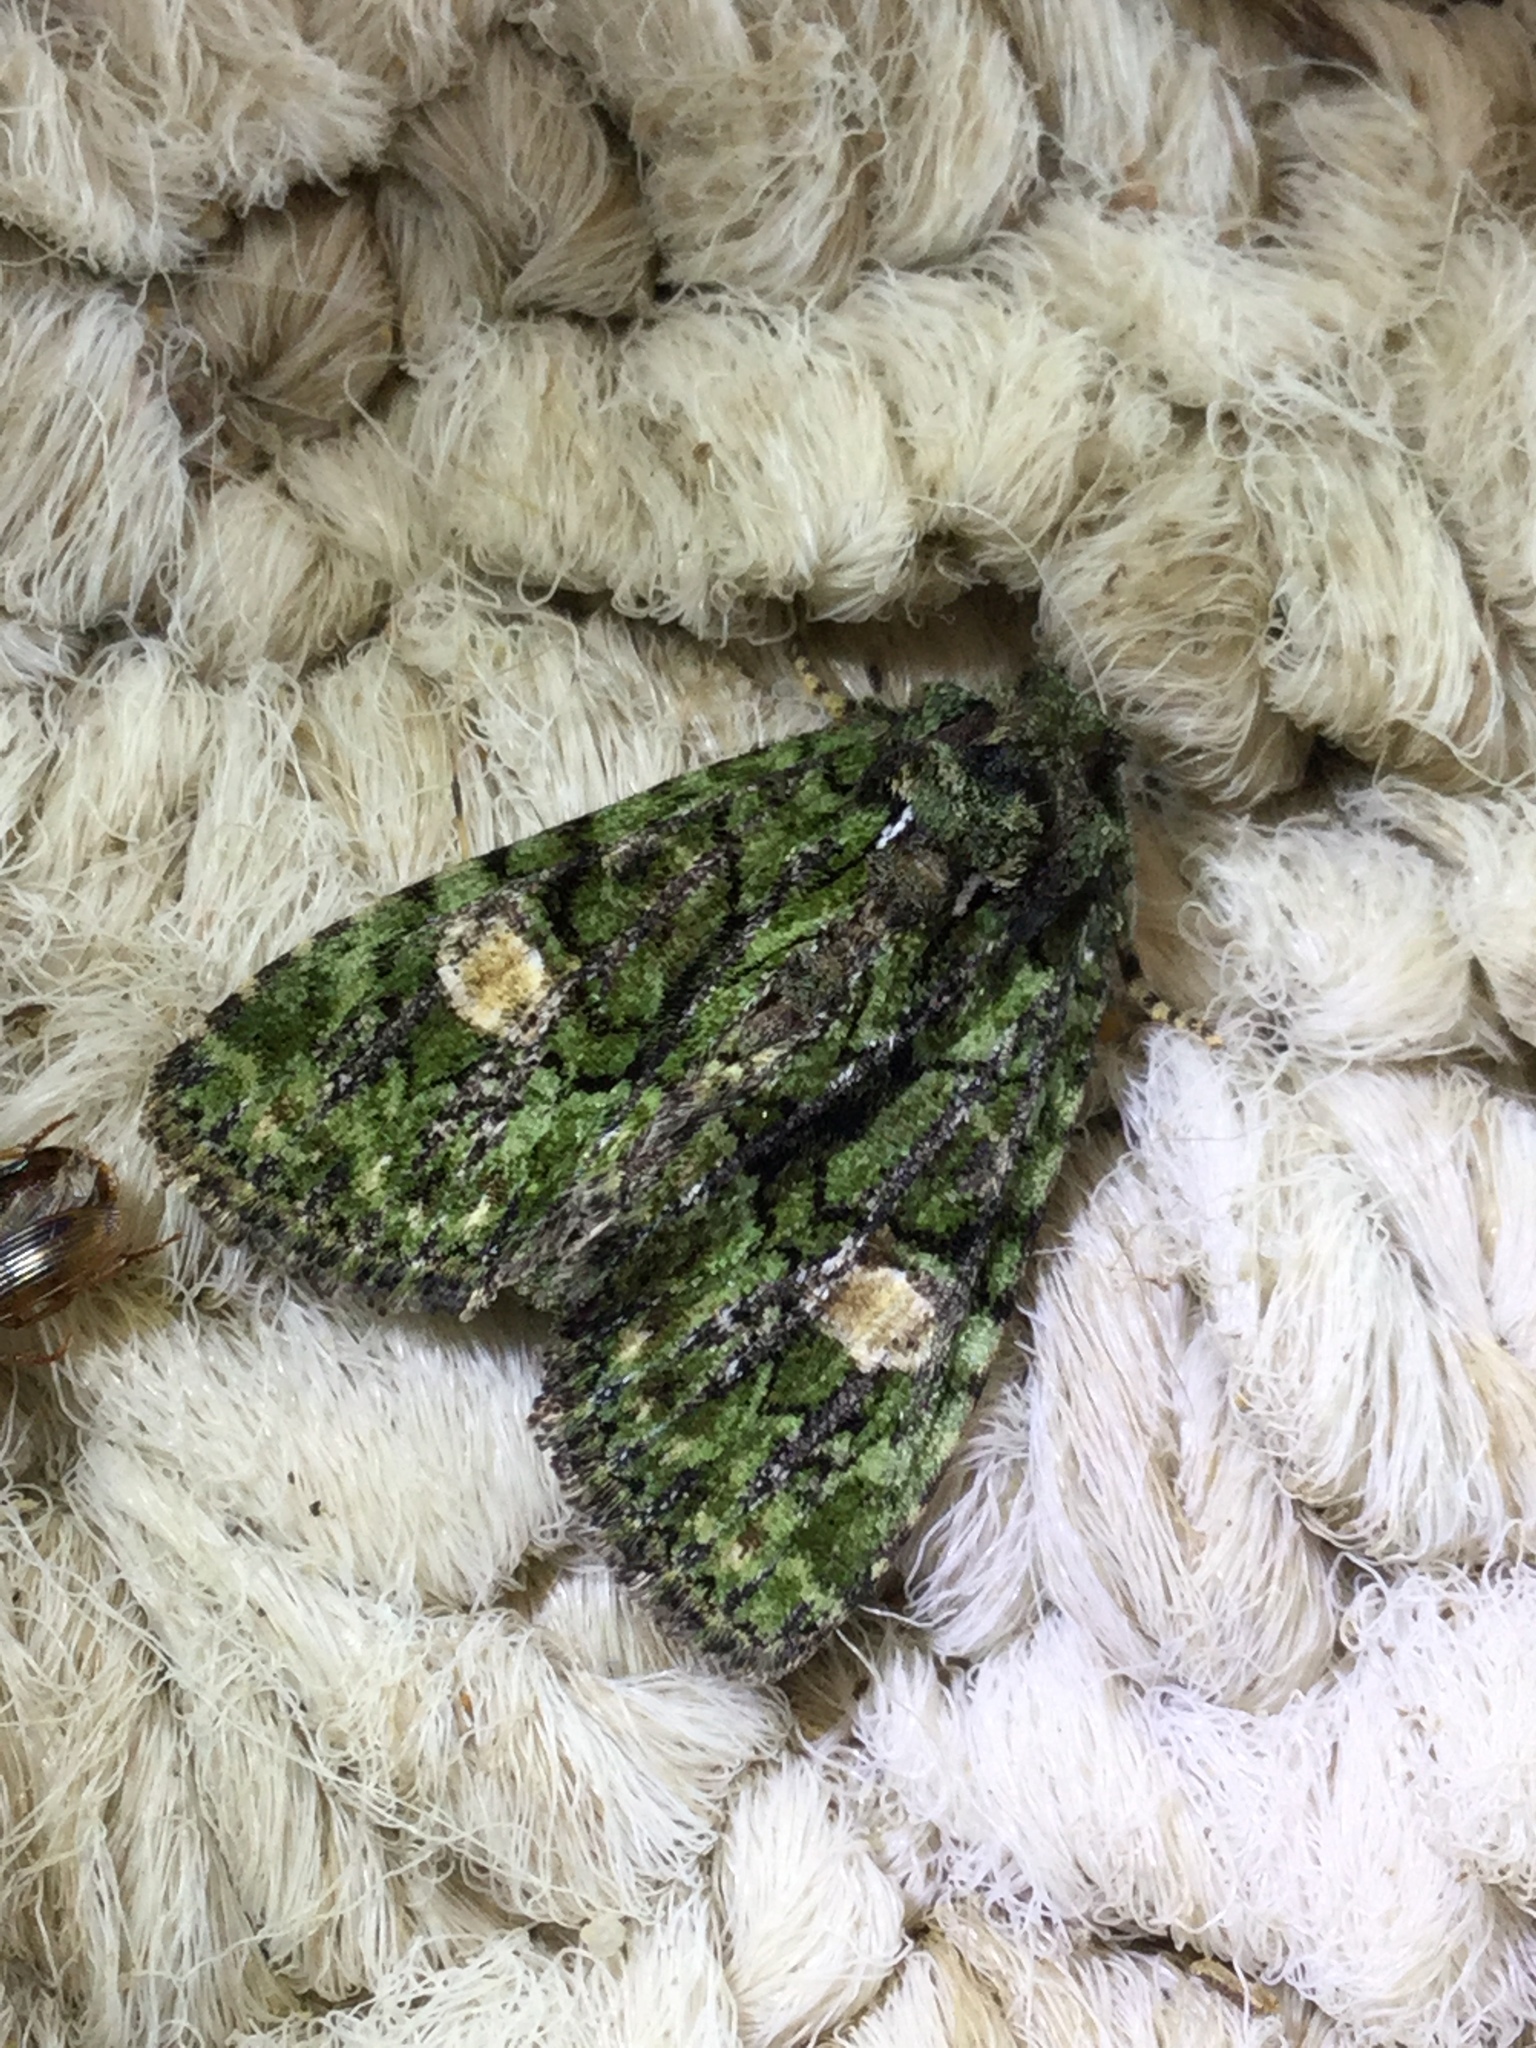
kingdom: Animalia
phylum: Arthropoda
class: Insecta
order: Lepidoptera
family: Noctuidae
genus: Phosphila
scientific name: Phosphila miselioides
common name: Spotted phosphila moth
